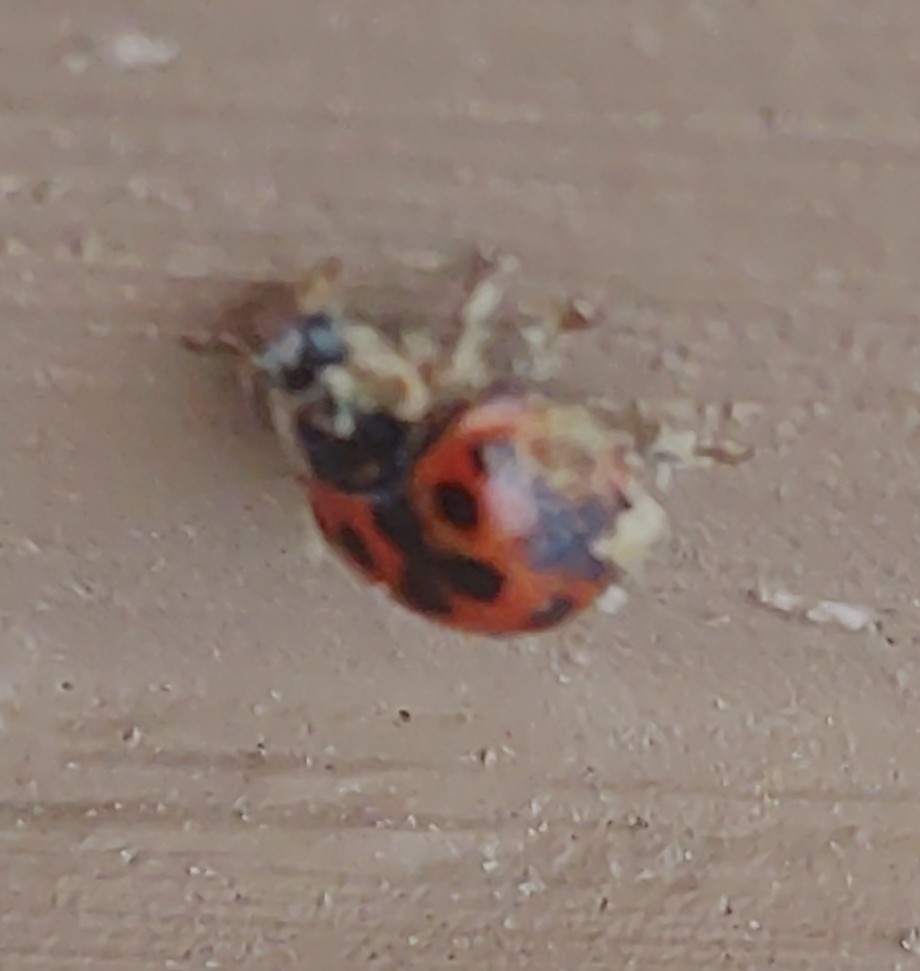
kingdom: Fungi
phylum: Ascomycota
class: Laboulbeniomycetes
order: Laboulbeniales
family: Laboulbeniaceae
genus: Hesperomyces
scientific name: Hesperomyces harmoniae
